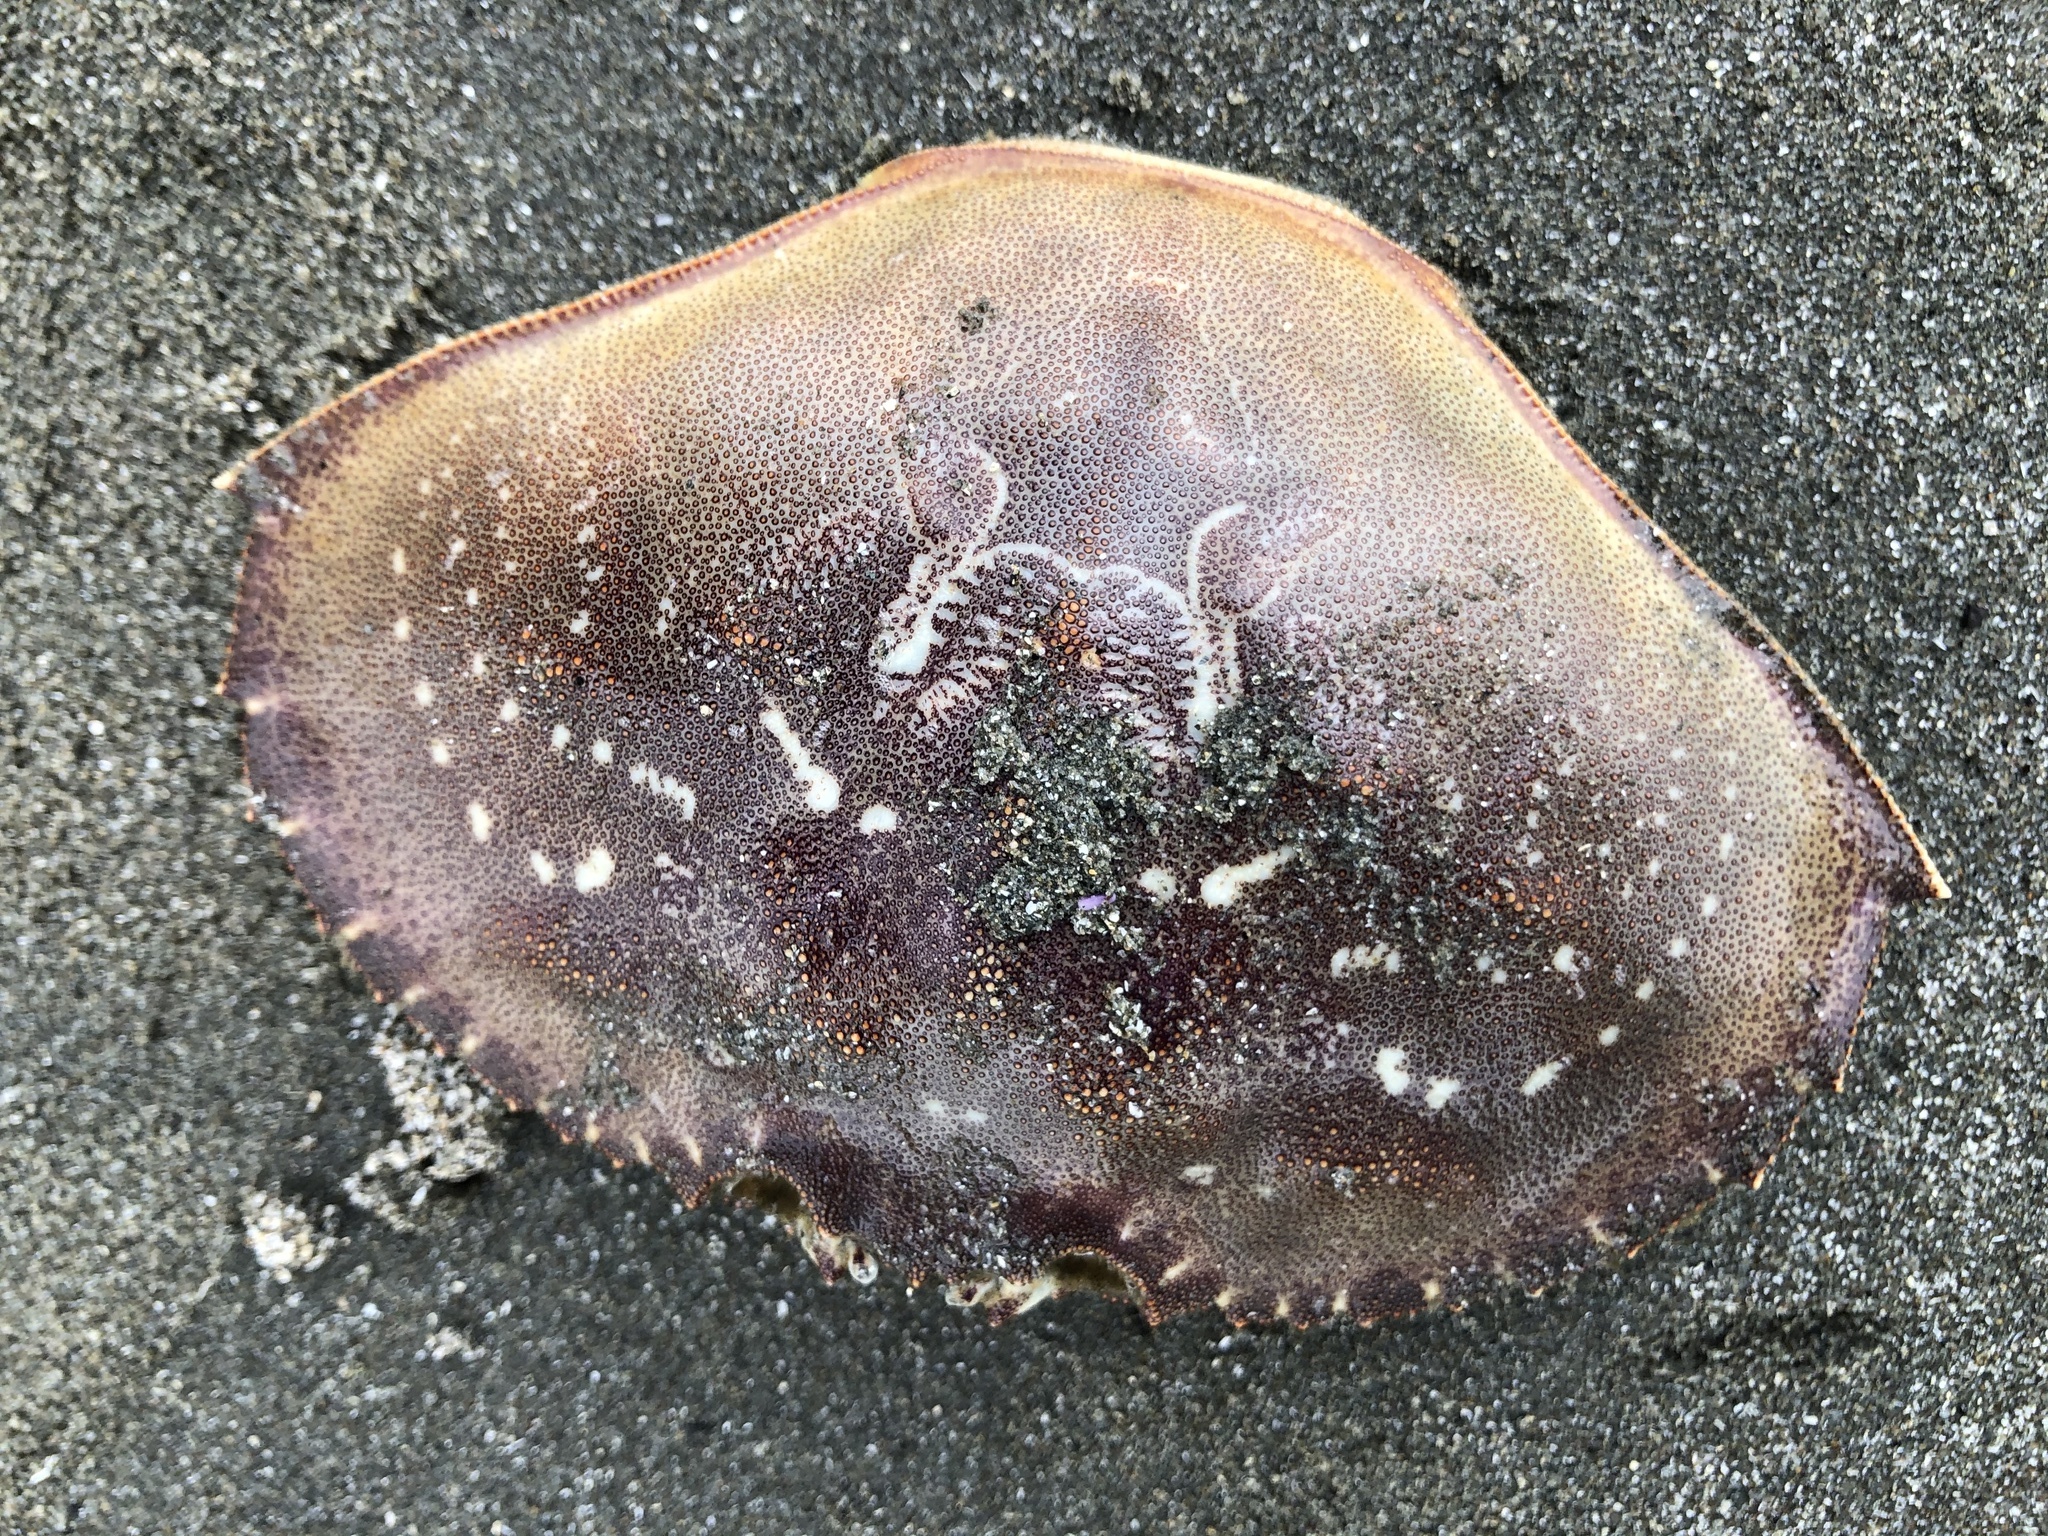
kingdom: Animalia
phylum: Arthropoda
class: Malacostraca
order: Decapoda
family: Cancridae
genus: Metacarcinus
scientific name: Metacarcinus magister
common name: Californian crab
